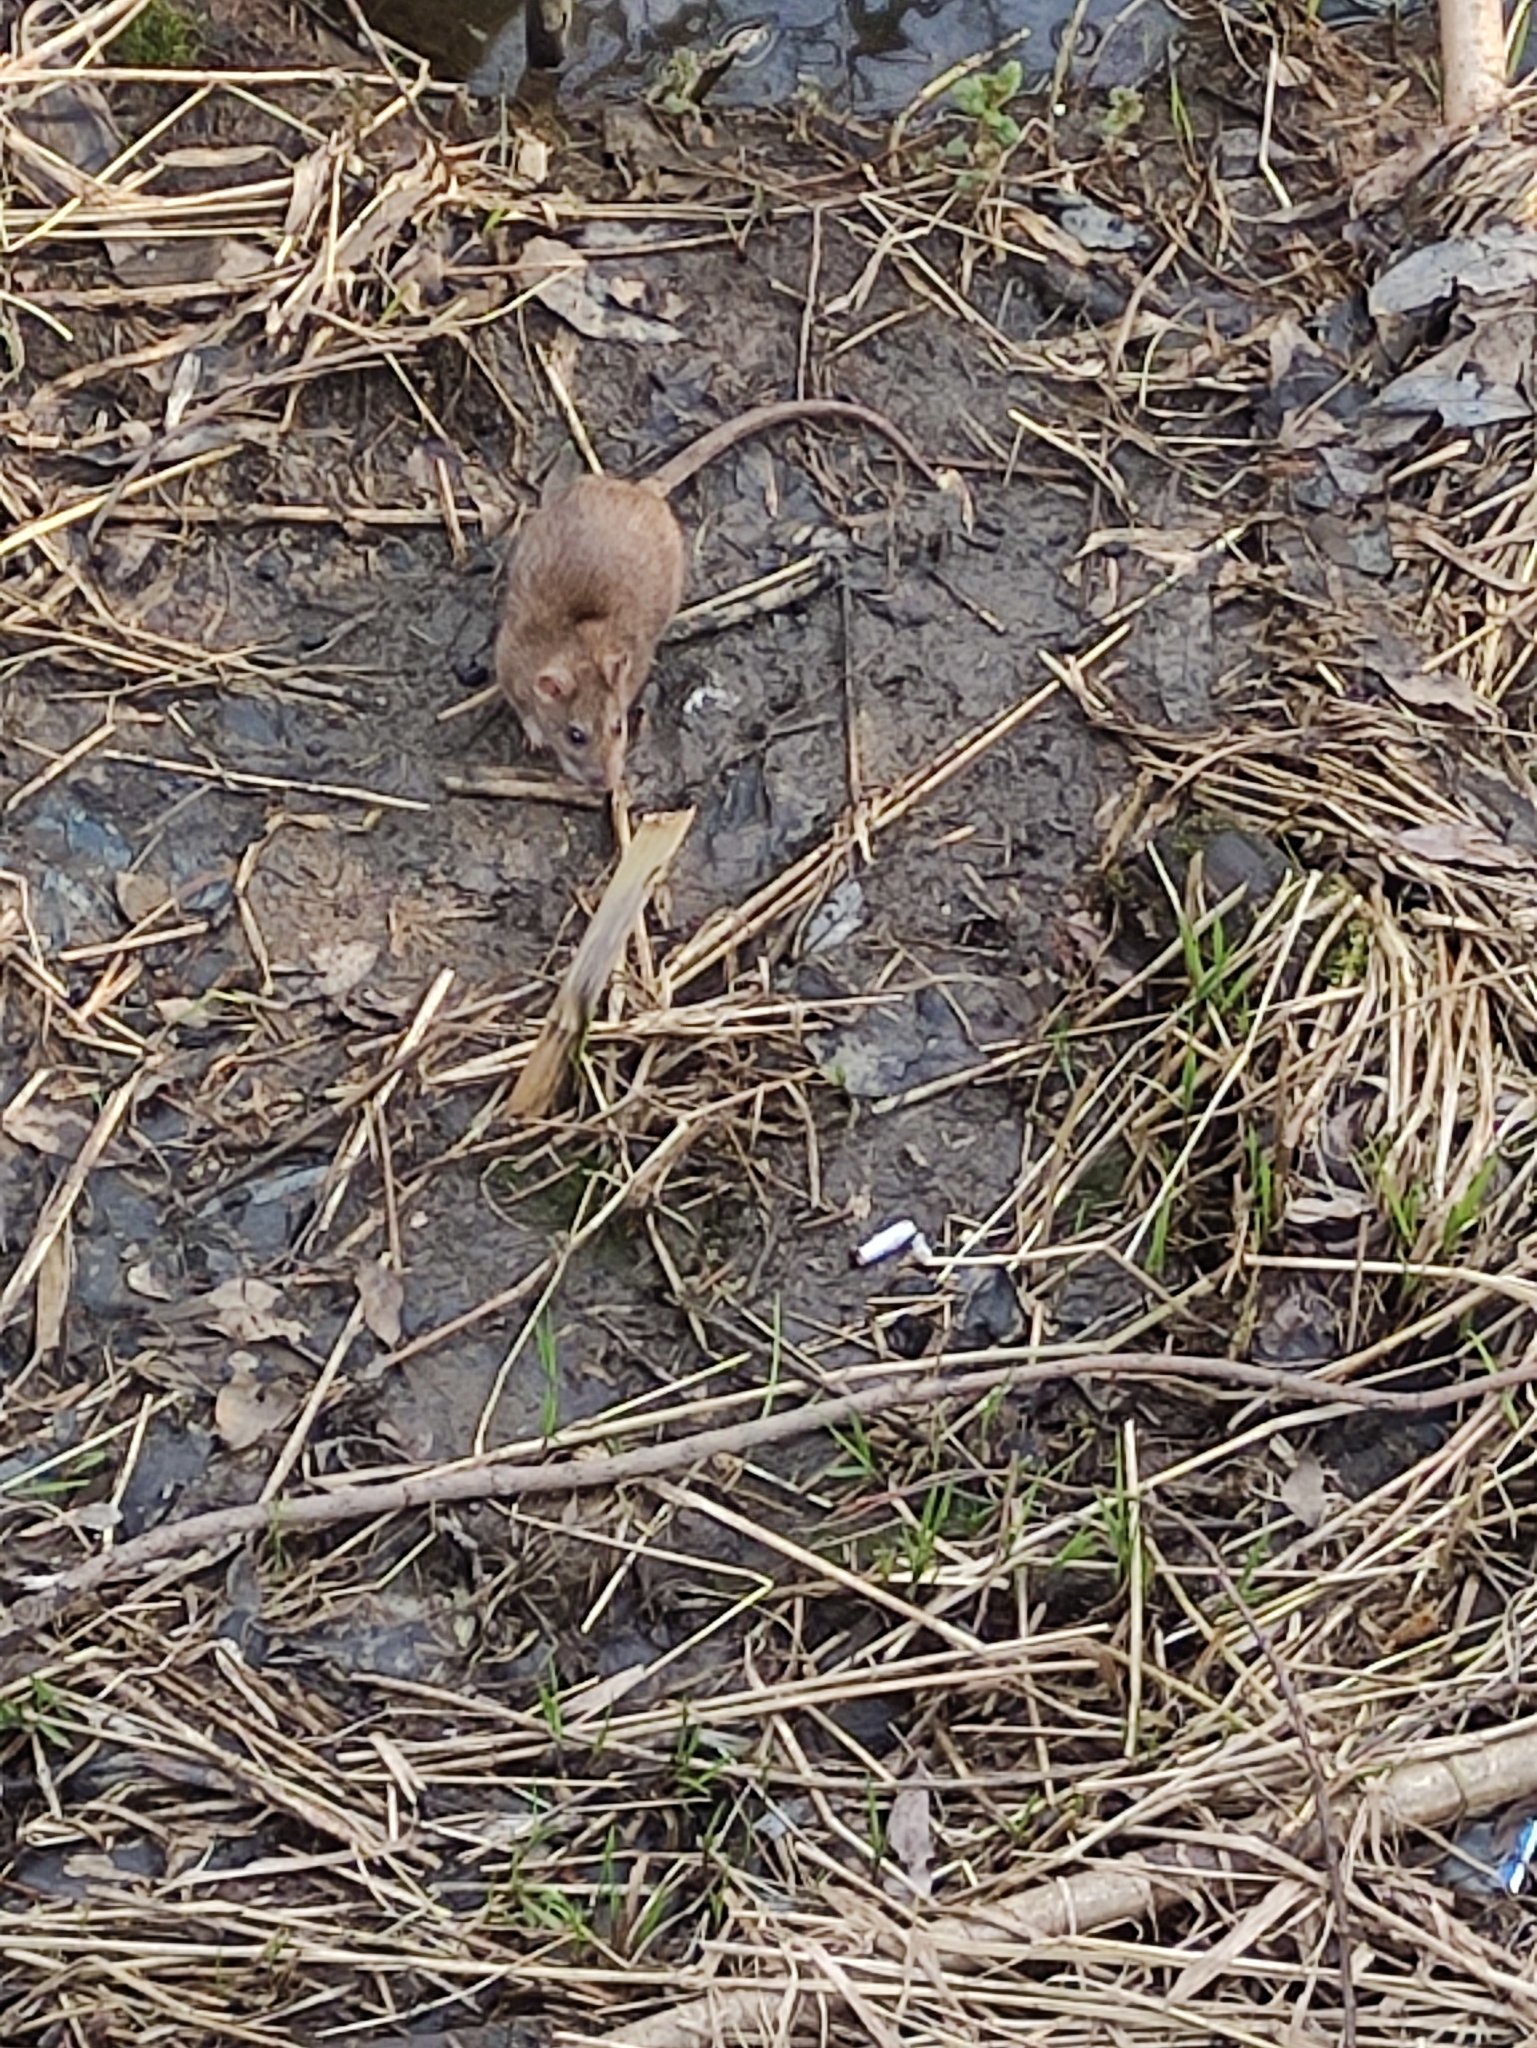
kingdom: Animalia
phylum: Chordata
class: Mammalia
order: Rodentia
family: Muridae
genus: Rattus
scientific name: Rattus norvegicus
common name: Brown rat
